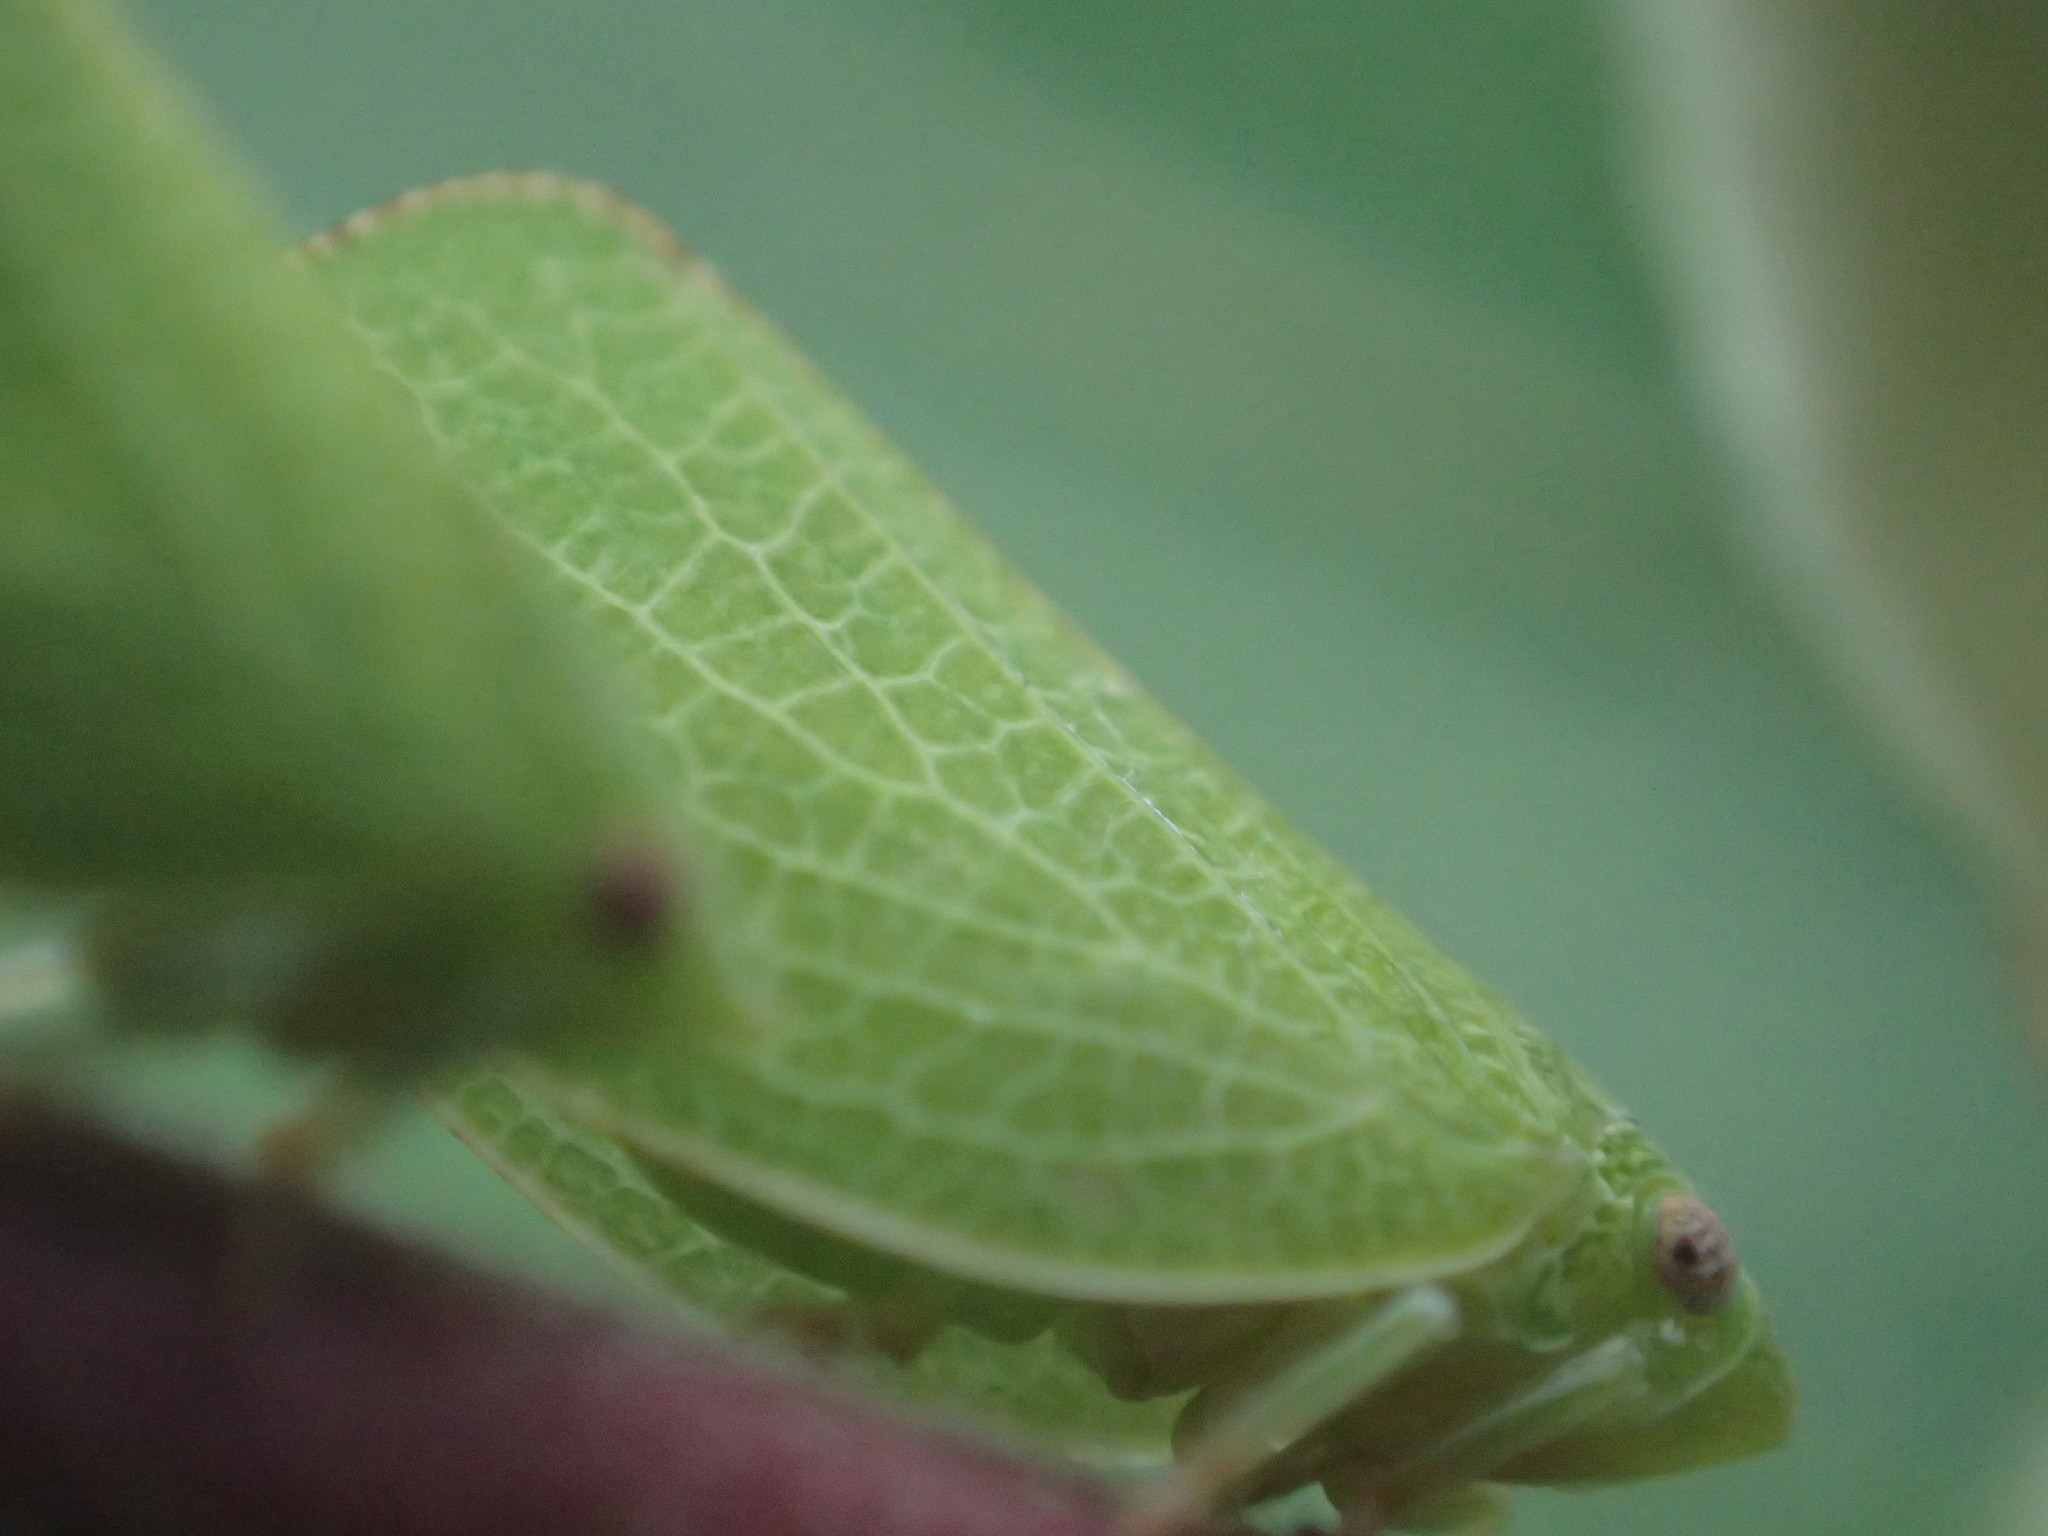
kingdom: Animalia
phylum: Arthropoda
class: Insecta
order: Hemiptera
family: Acanaloniidae
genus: Acanalonia
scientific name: Acanalonia conica
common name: Green cone-headed planthopper
